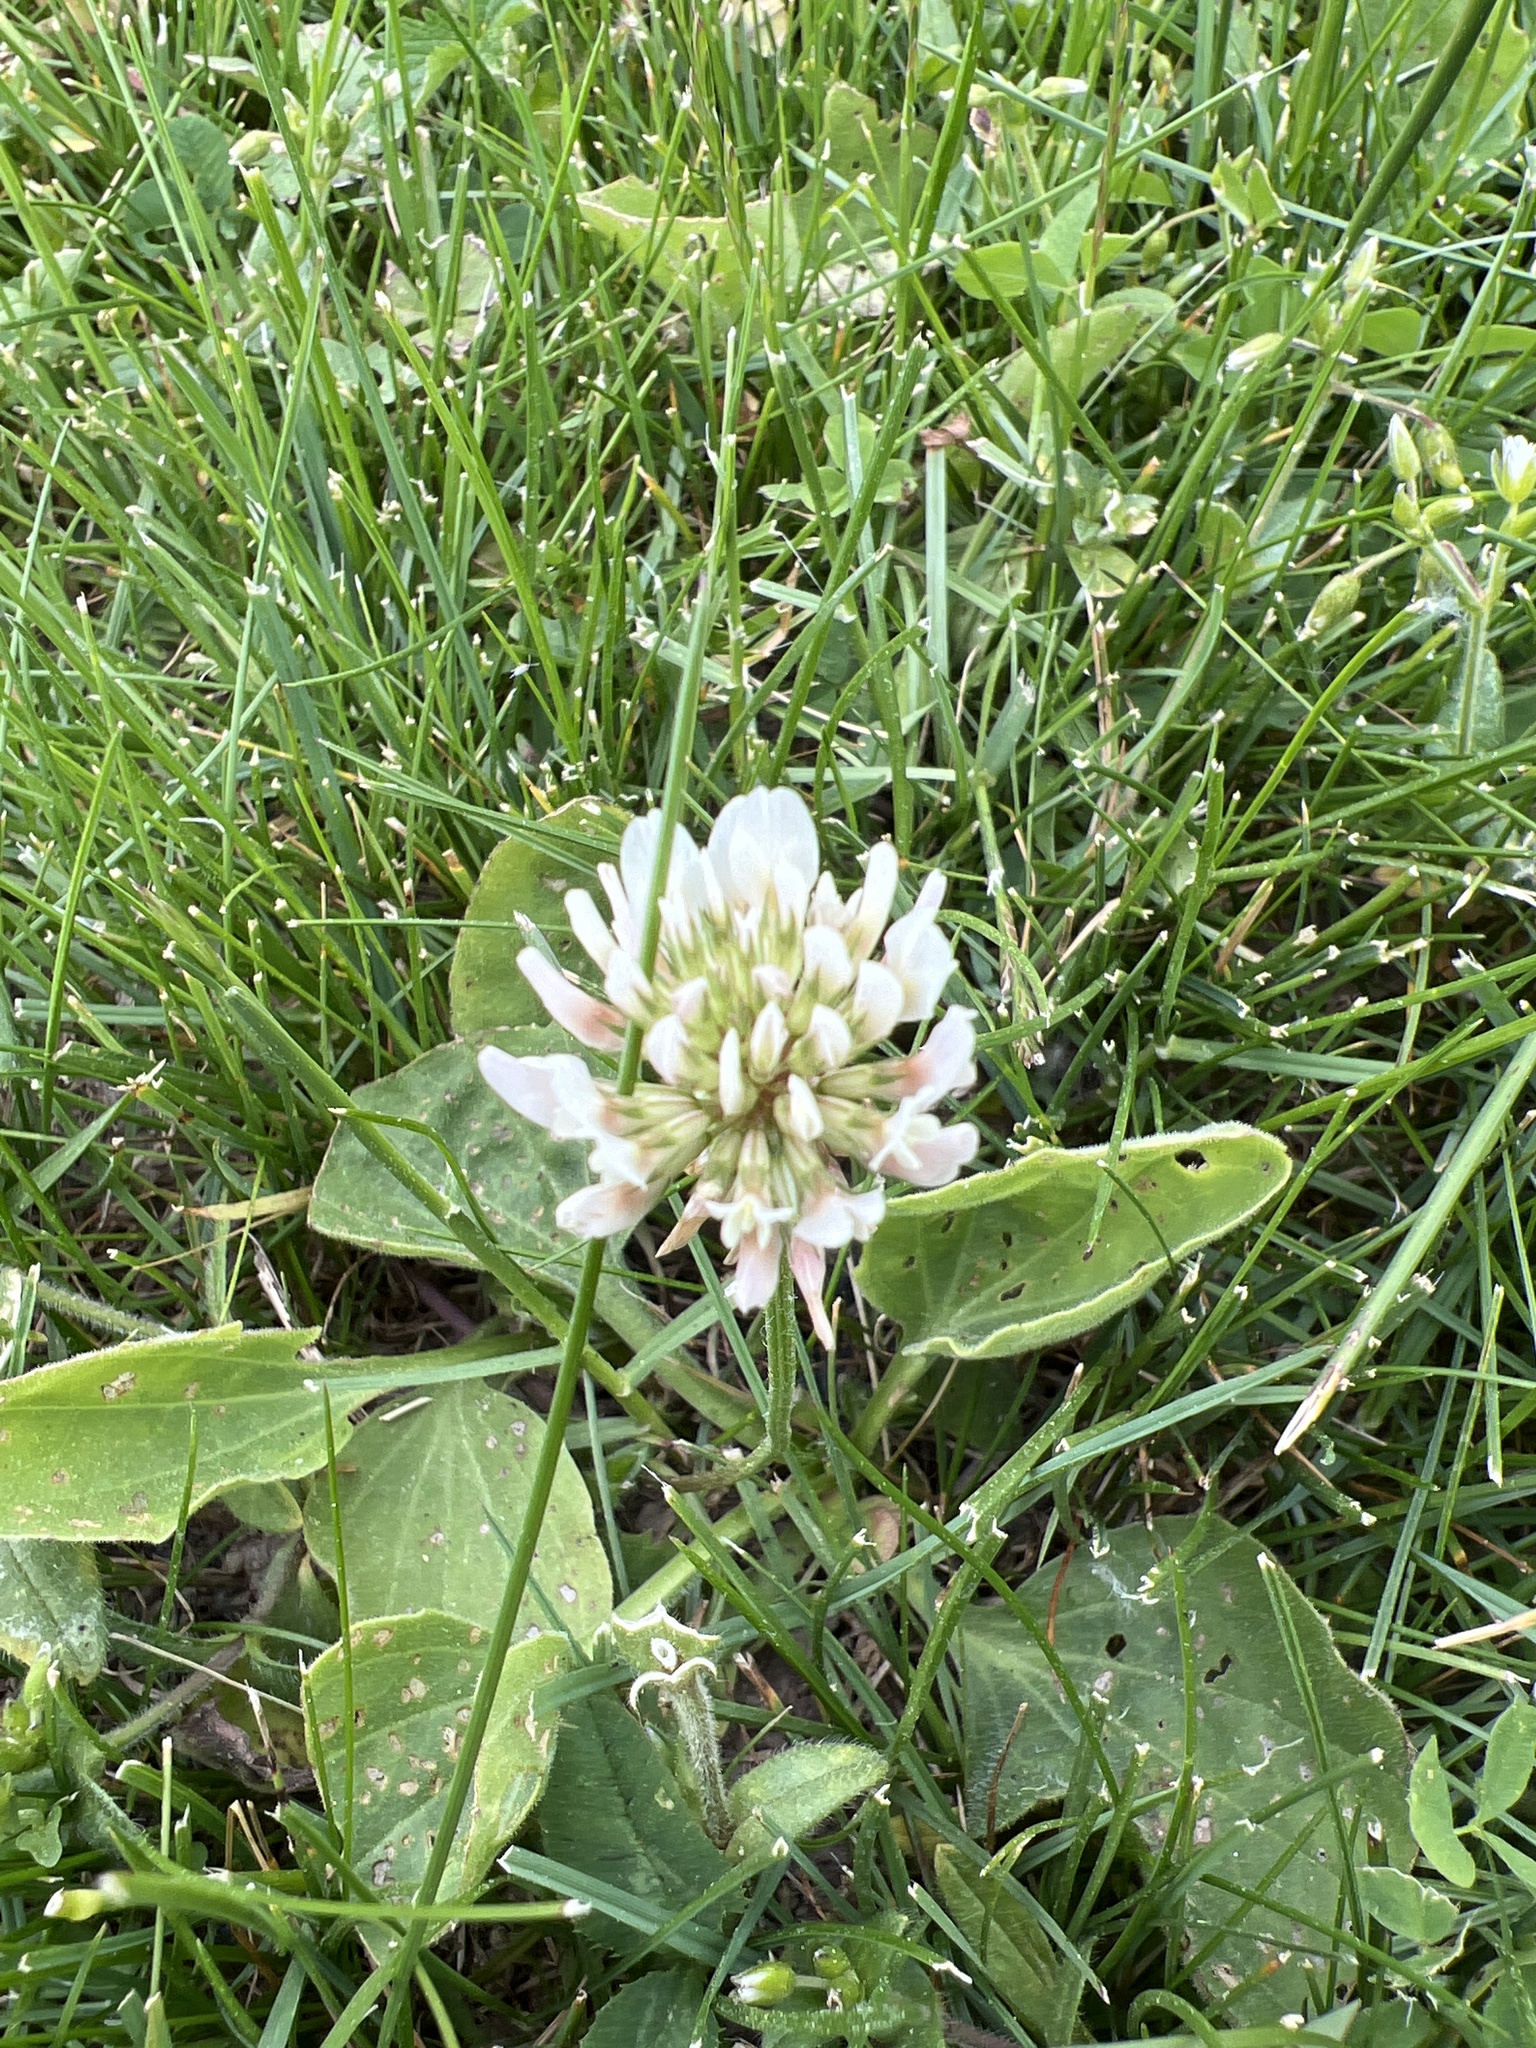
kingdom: Plantae
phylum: Tracheophyta
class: Magnoliopsida
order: Fabales
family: Fabaceae
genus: Trifolium
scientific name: Trifolium repens
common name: White clover
